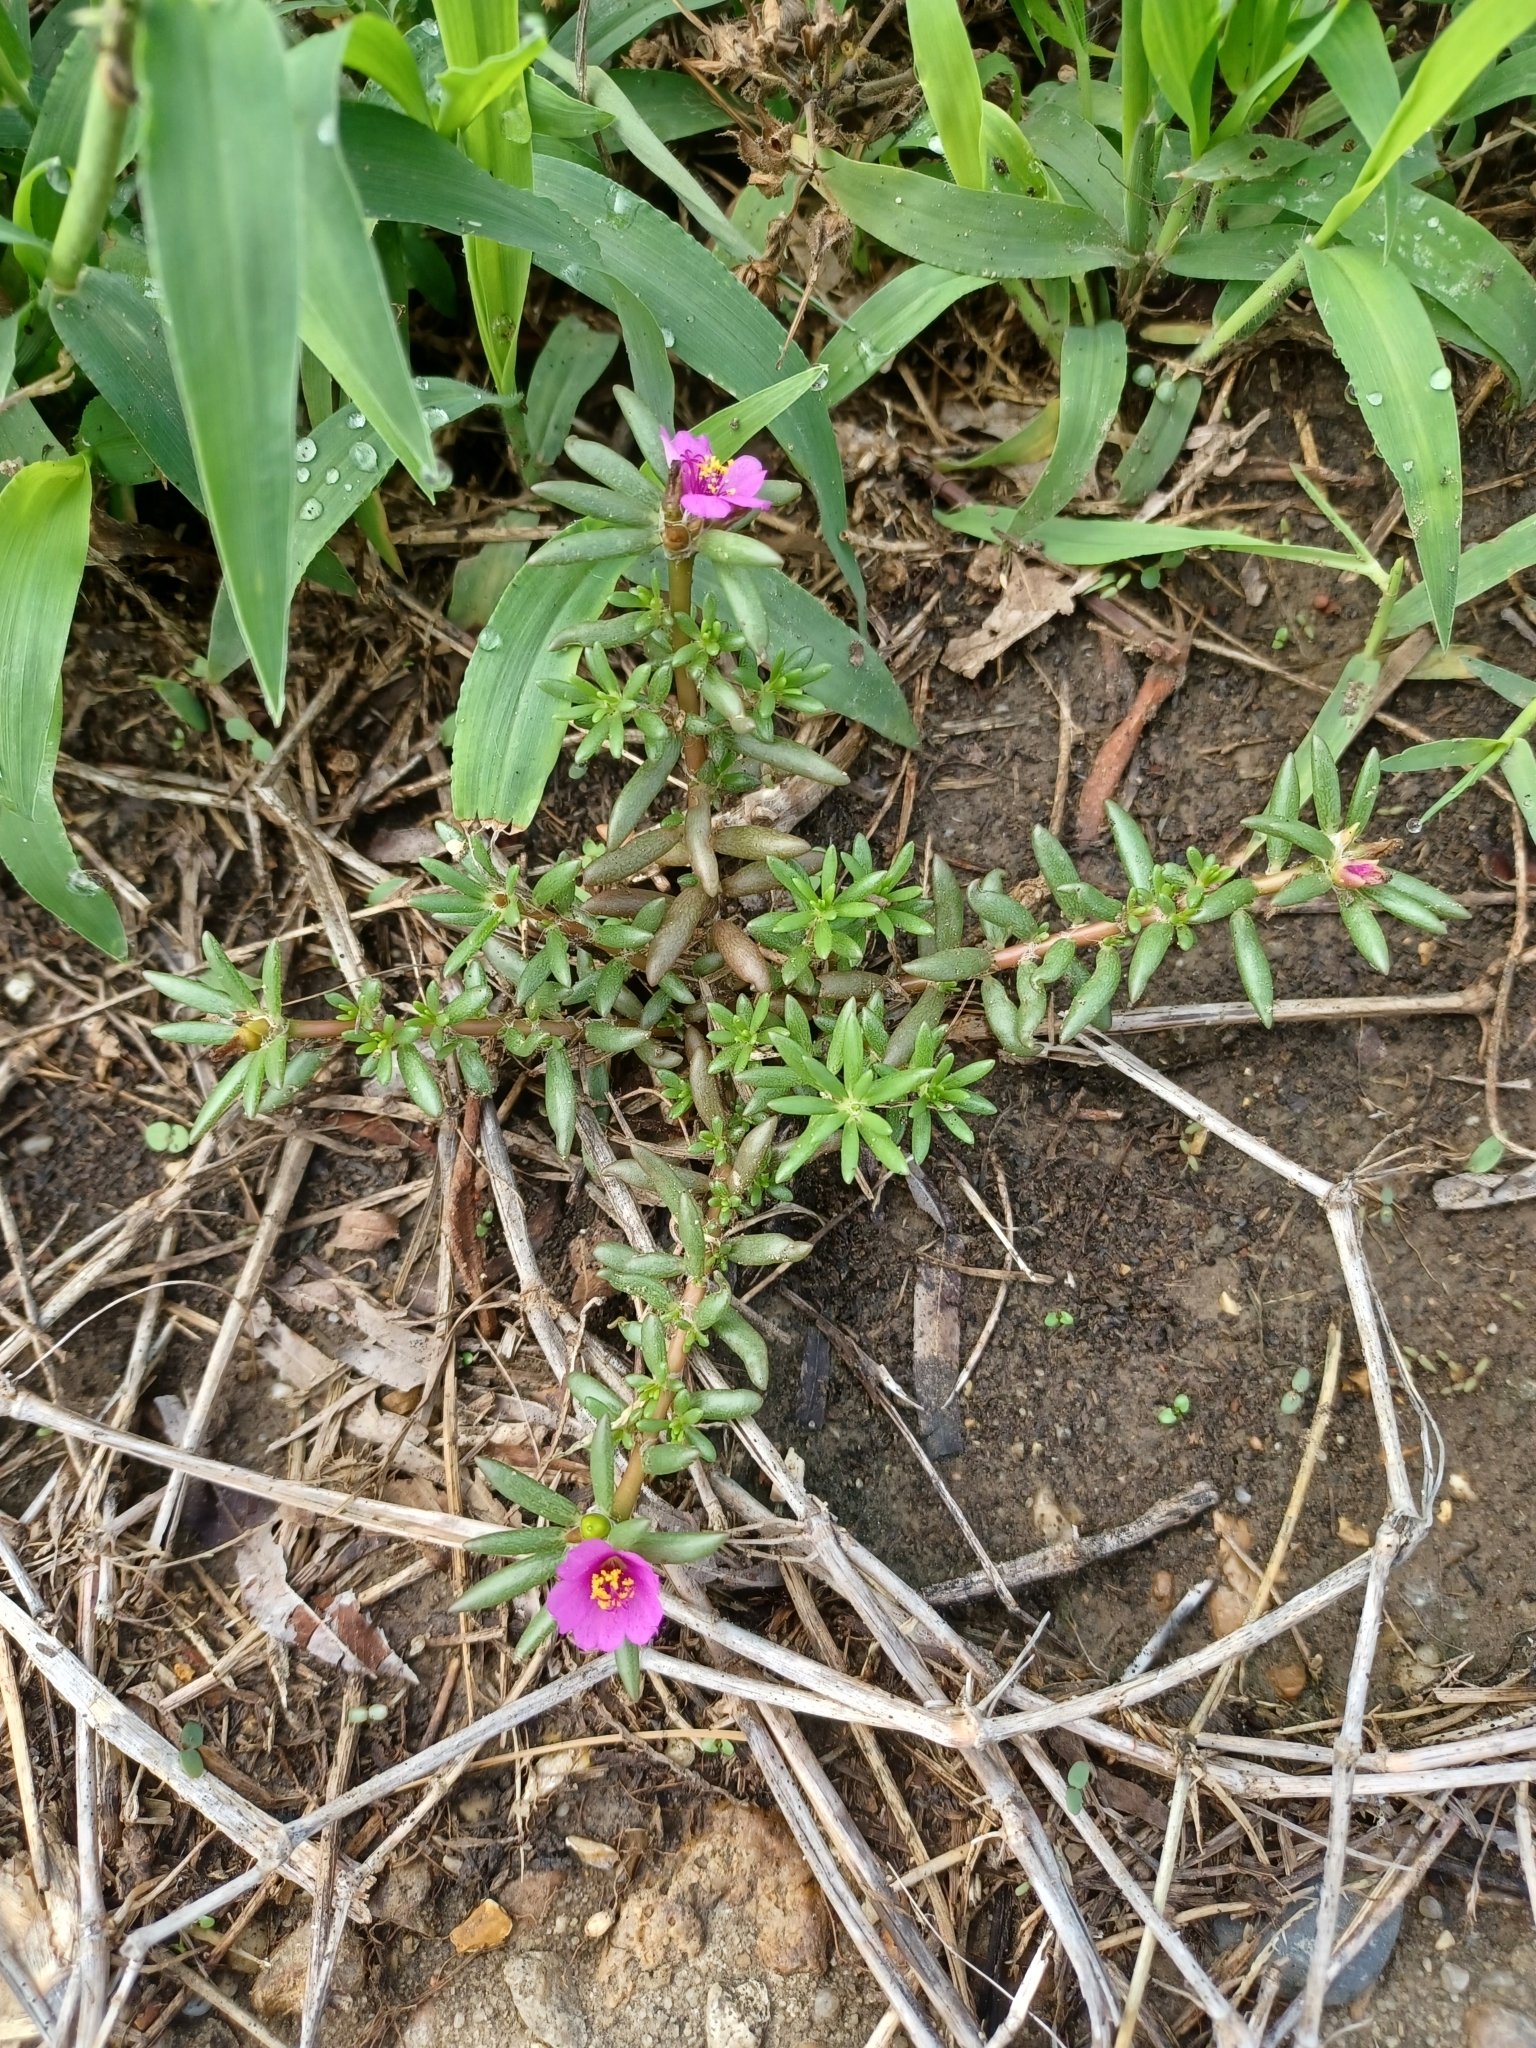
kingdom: Plantae
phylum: Tracheophyta
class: Magnoliopsida
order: Caryophyllales
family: Portulacaceae
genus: Portulaca
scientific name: Portulaca pilosa
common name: Kiss me quick
